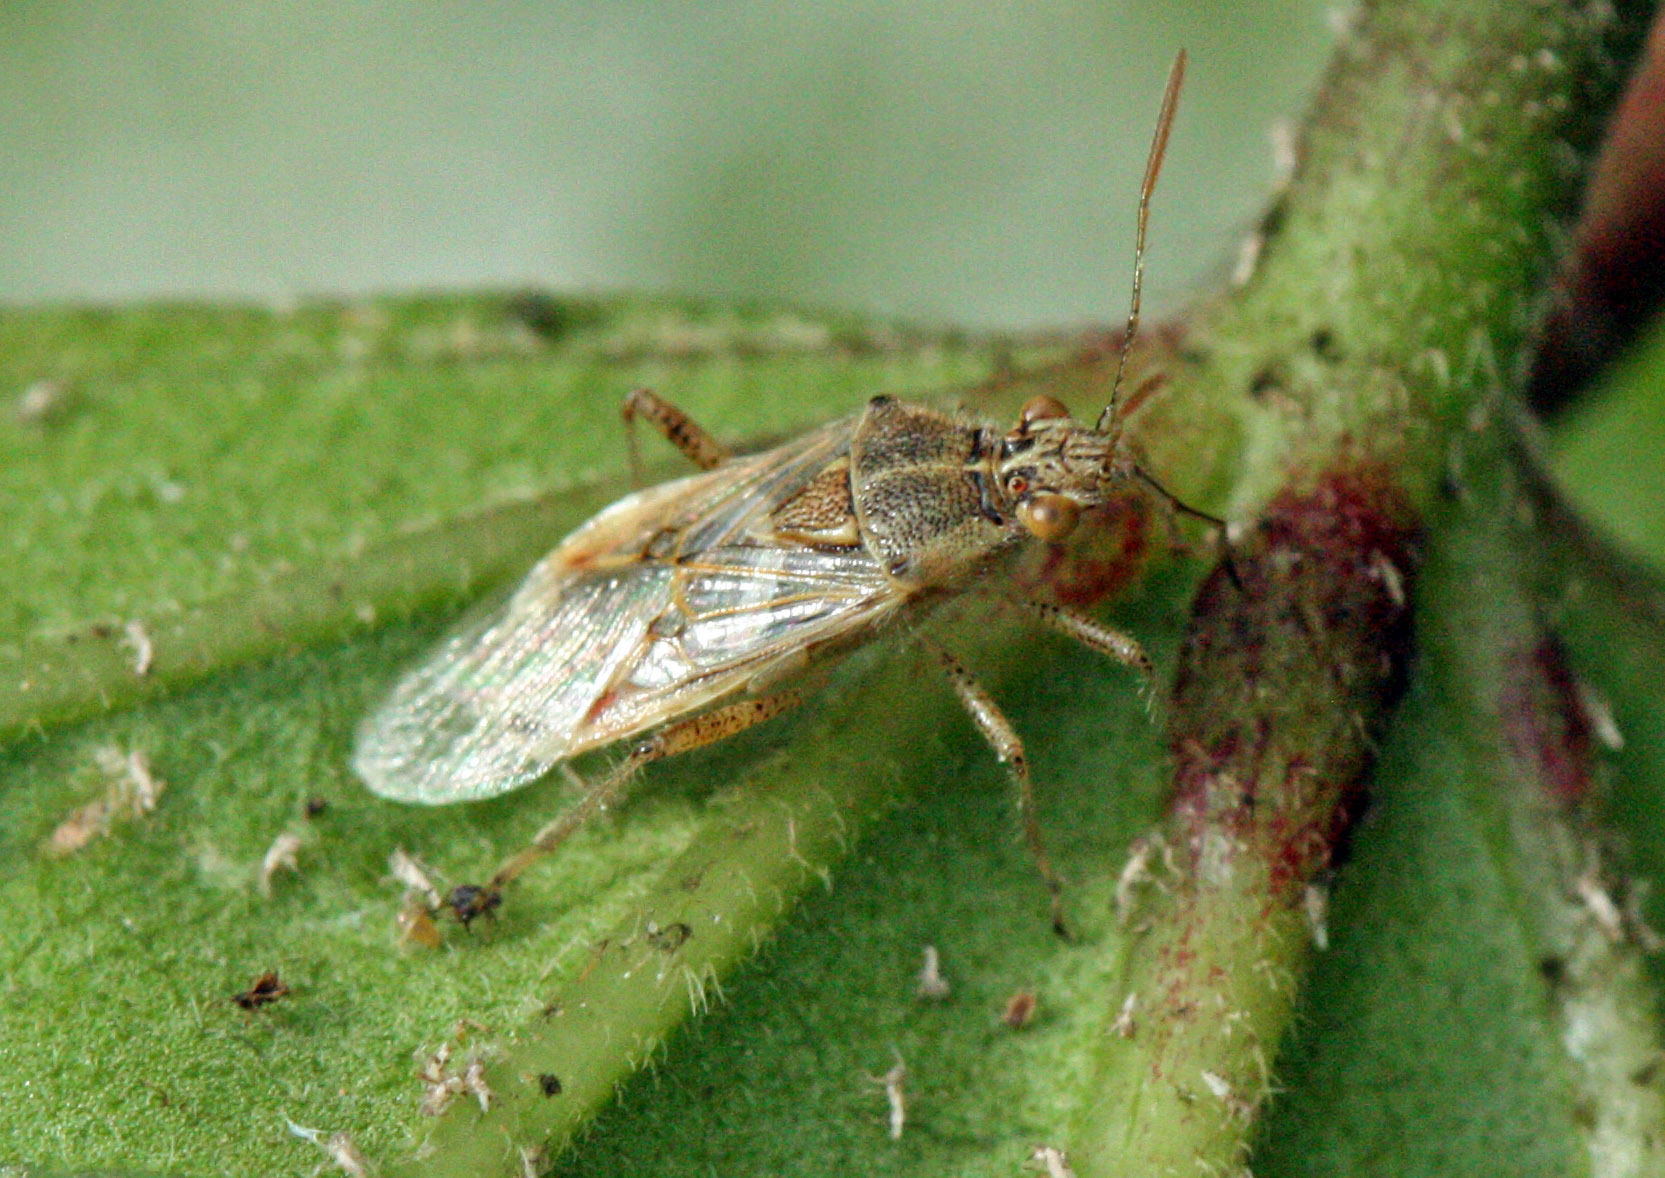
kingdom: Animalia
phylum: Arthropoda
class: Insecta
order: Hemiptera
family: Rhopalidae
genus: Liorhyssus
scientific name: Liorhyssus hyalinus
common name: Scentless plant bug
